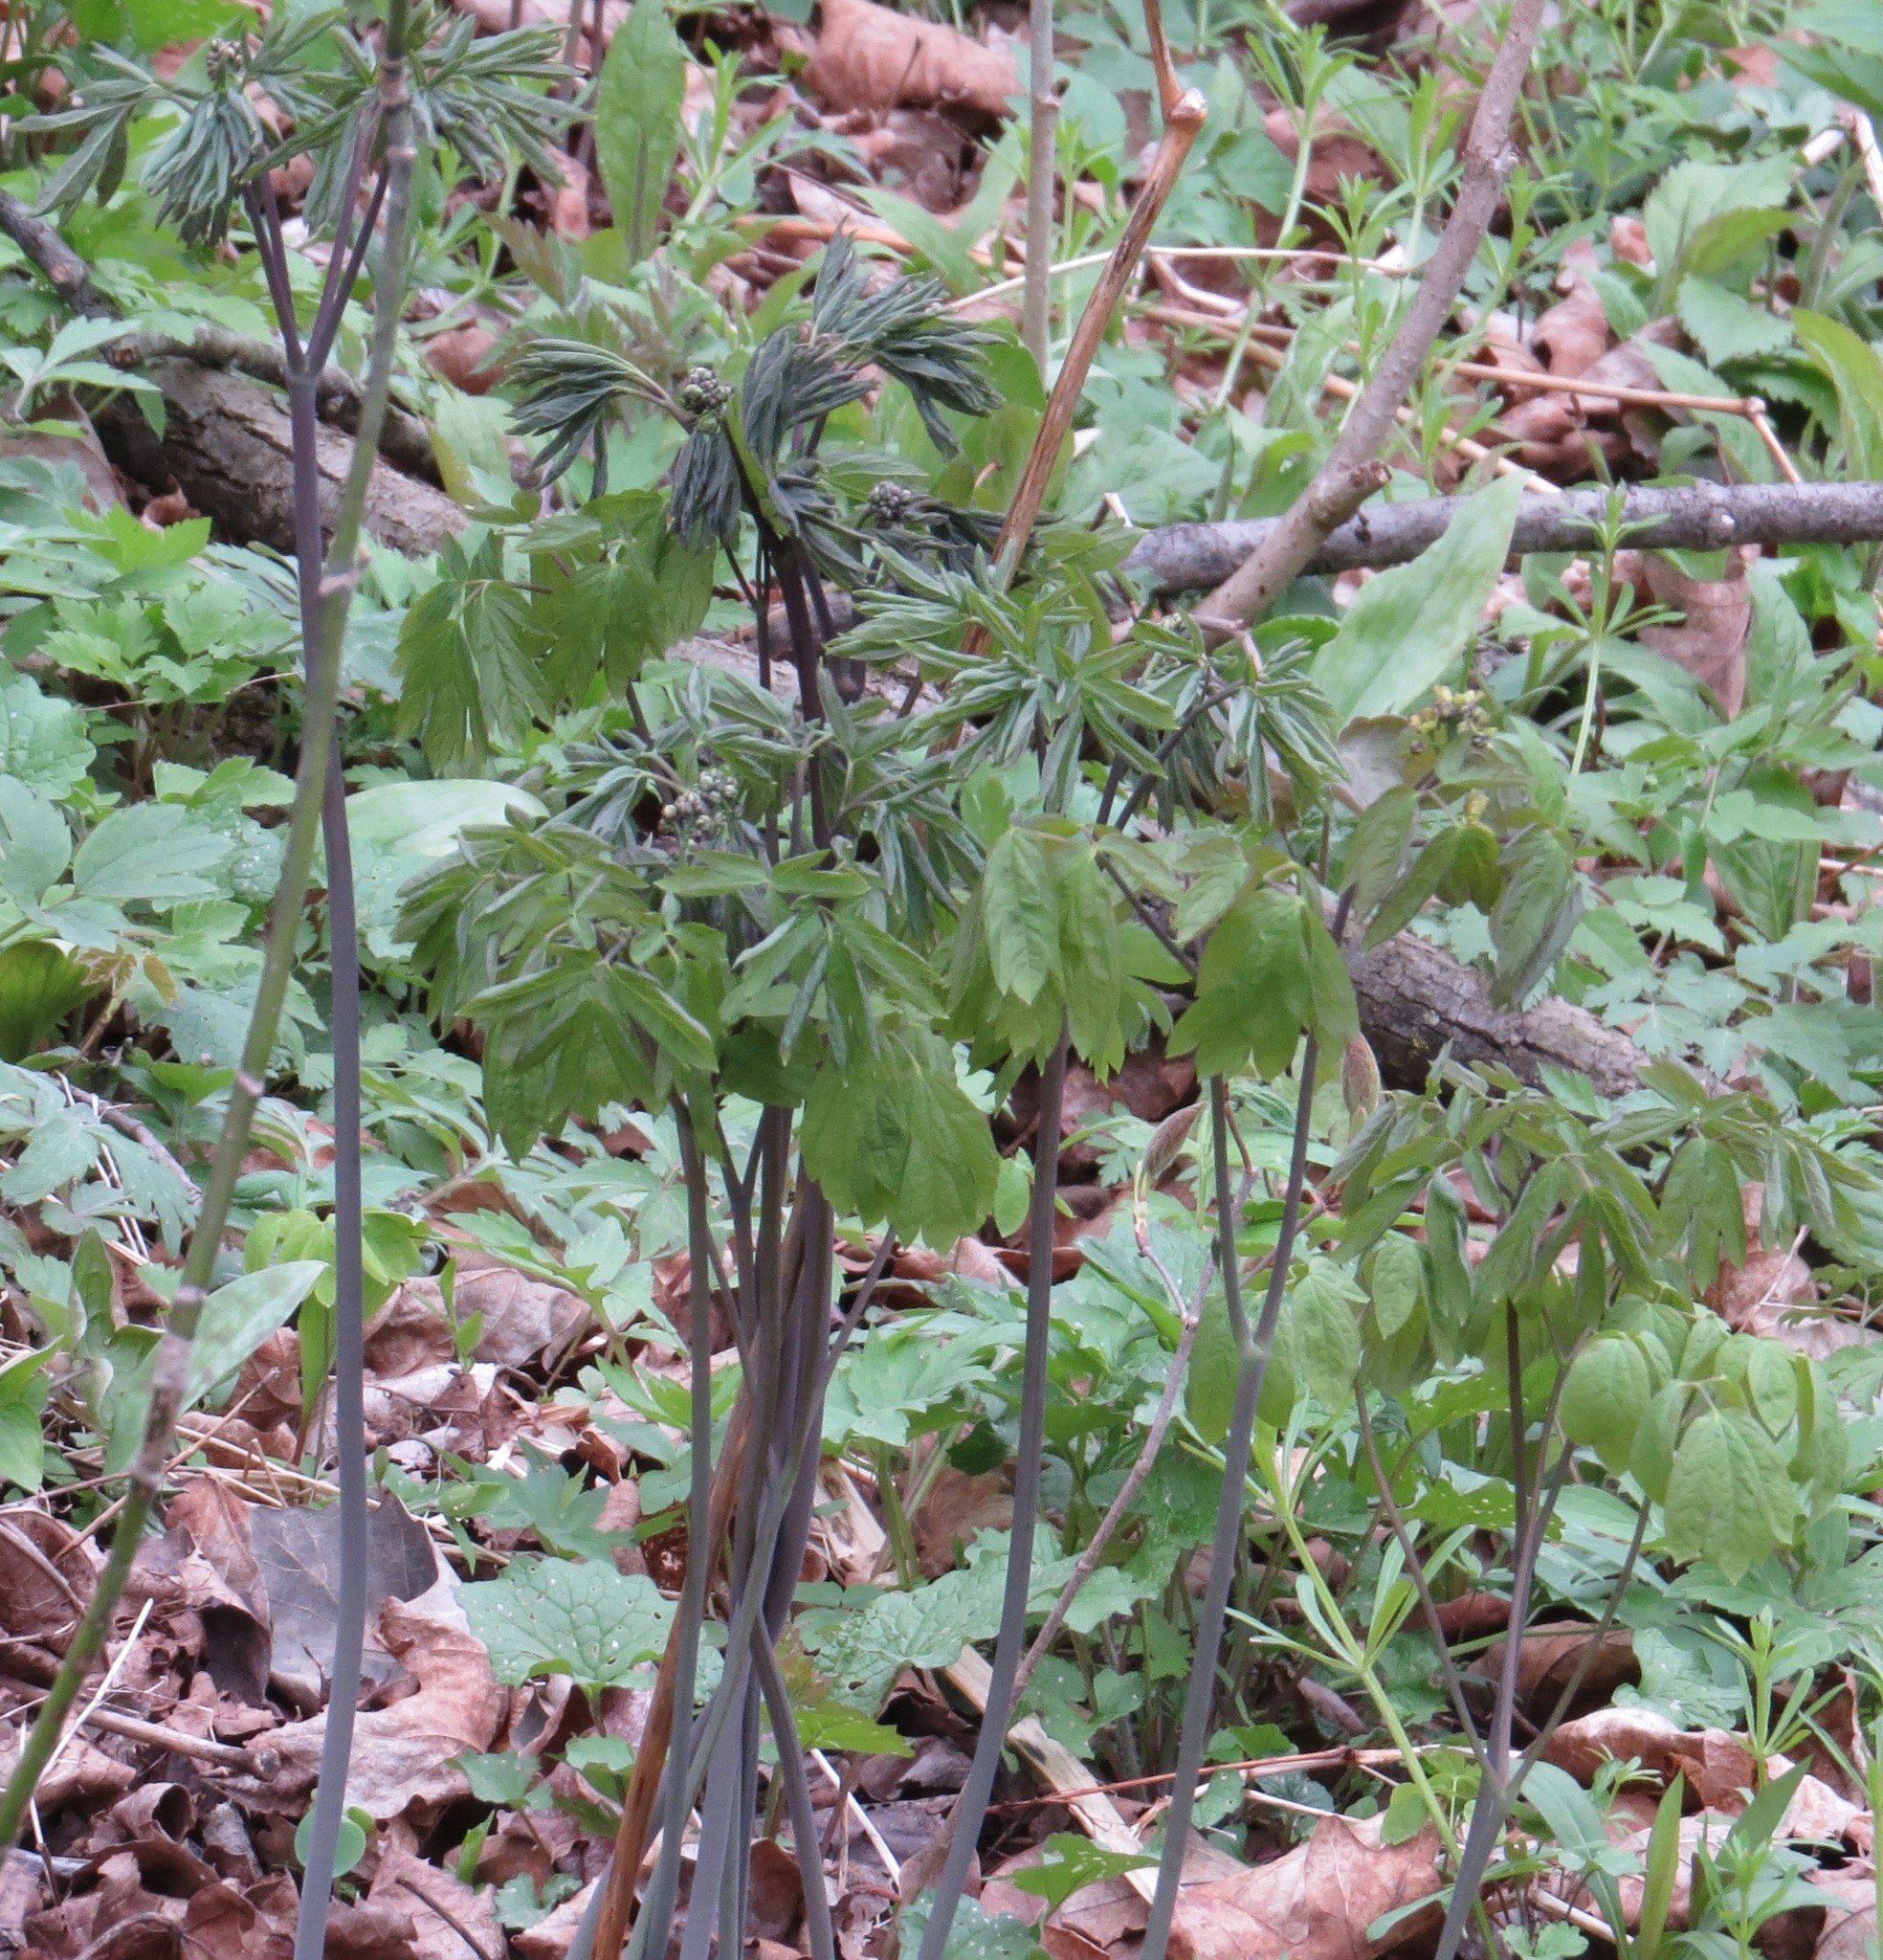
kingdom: Plantae
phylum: Tracheophyta
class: Magnoliopsida
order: Ranunculales
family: Berberidaceae
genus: Caulophyllum
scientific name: Caulophyllum thalictroides
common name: Blue cohosh
